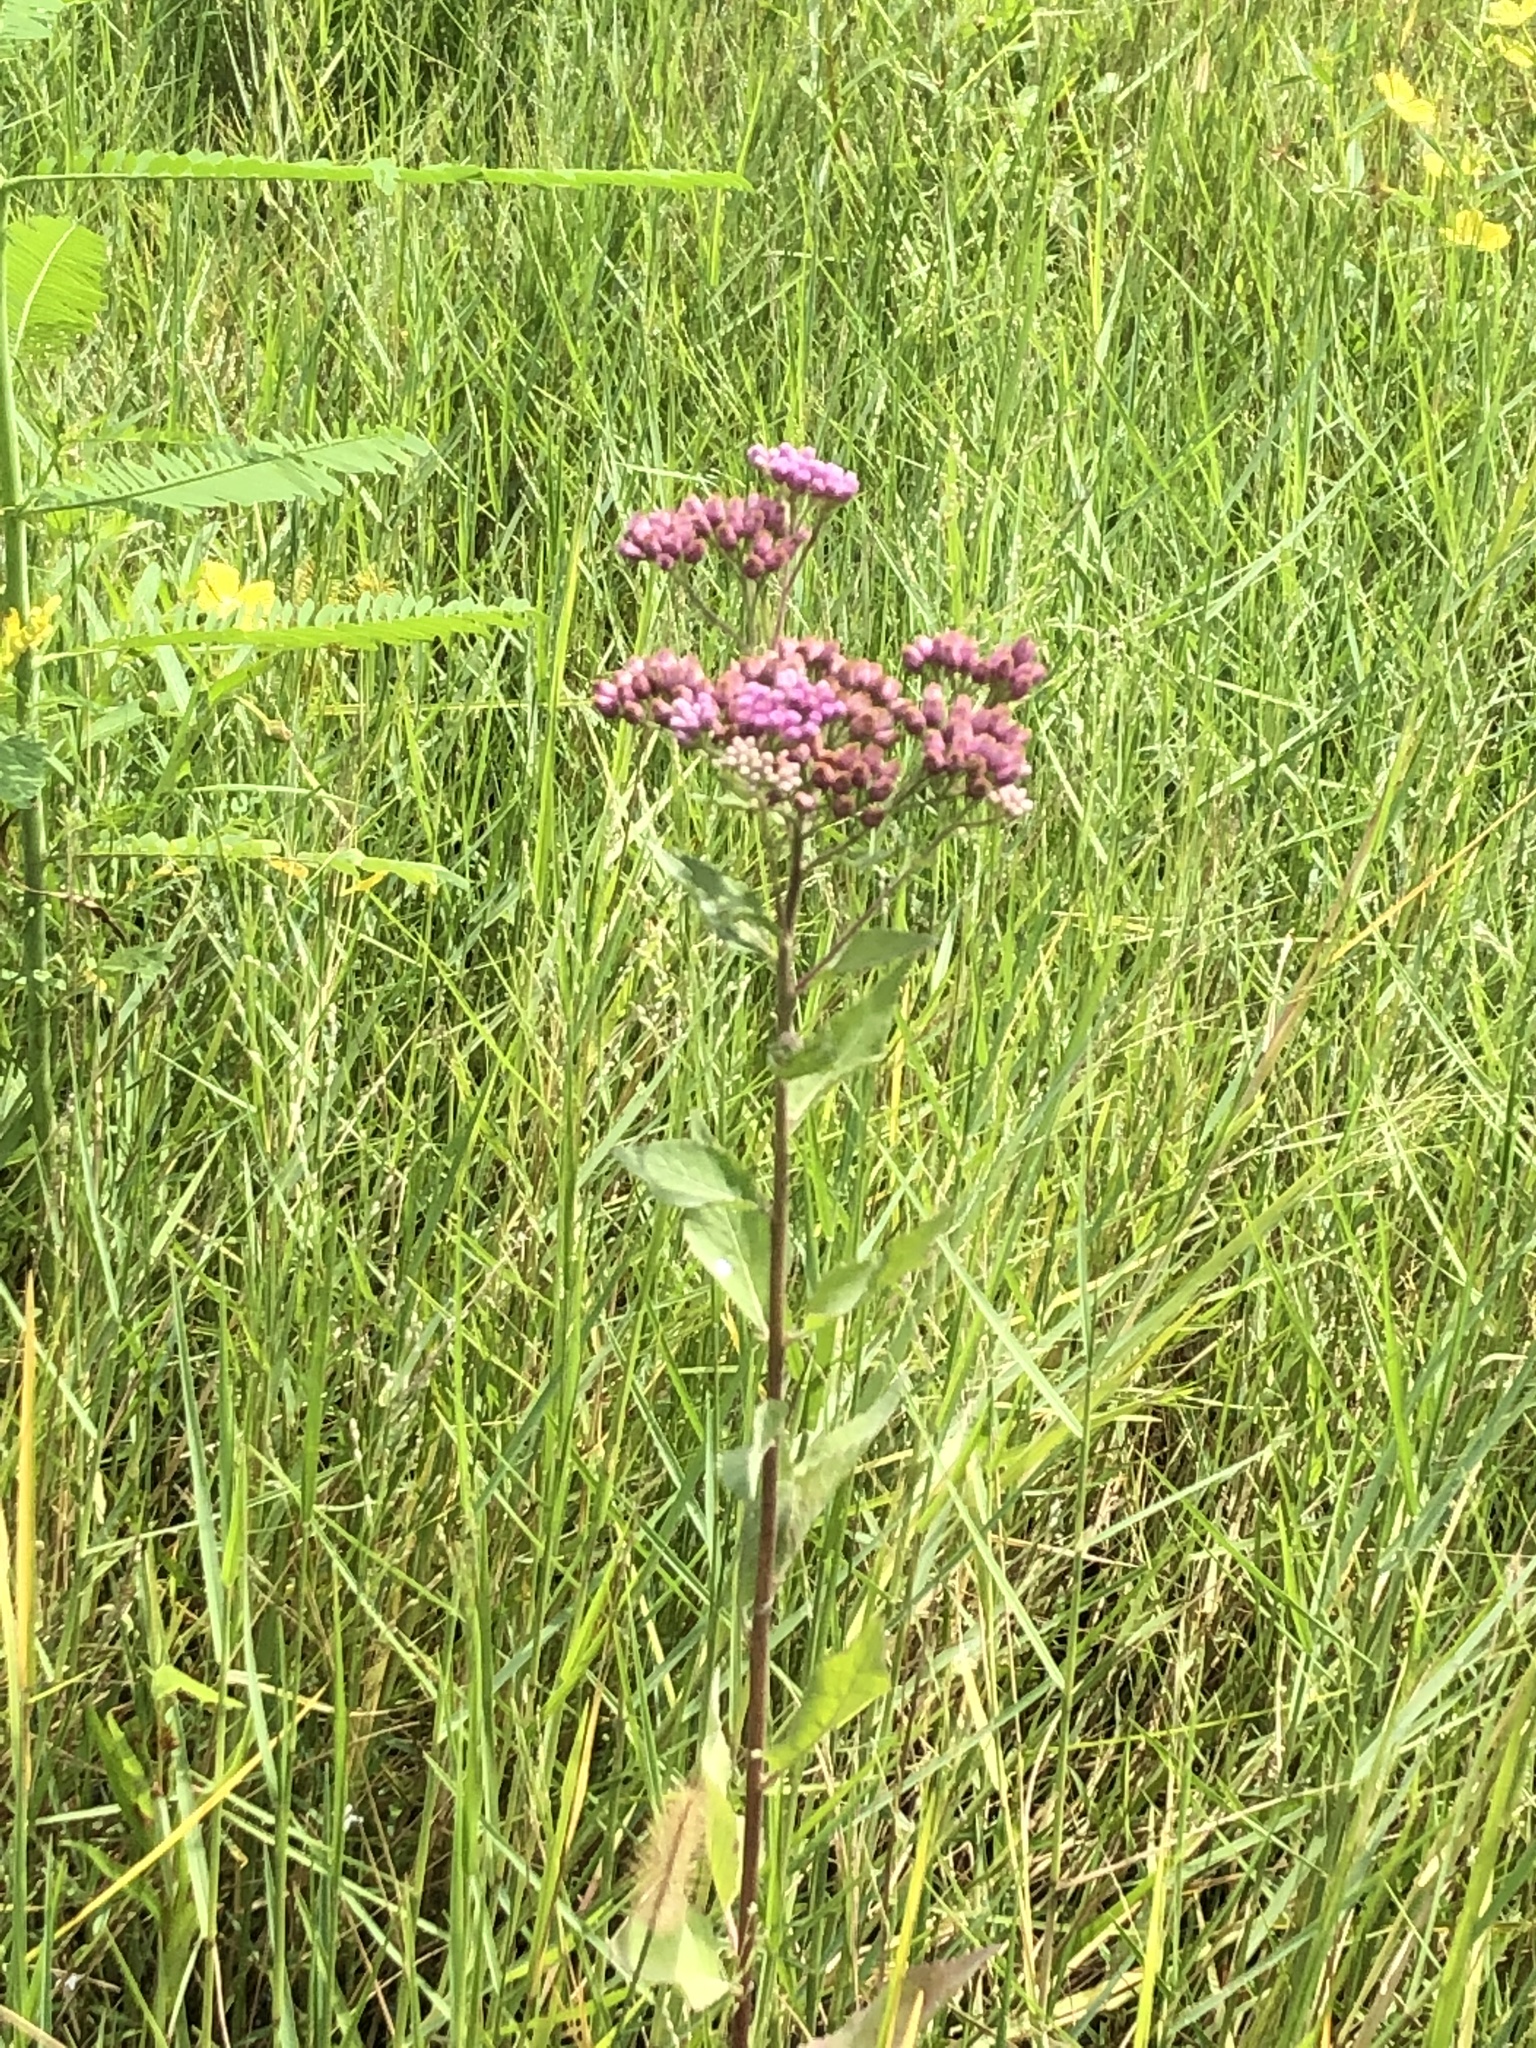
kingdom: Plantae
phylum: Tracheophyta
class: Magnoliopsida
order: Asterales
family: Asteraceae
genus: Pluchea
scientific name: Pluchea odorata
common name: Saltmarsh fleabane
